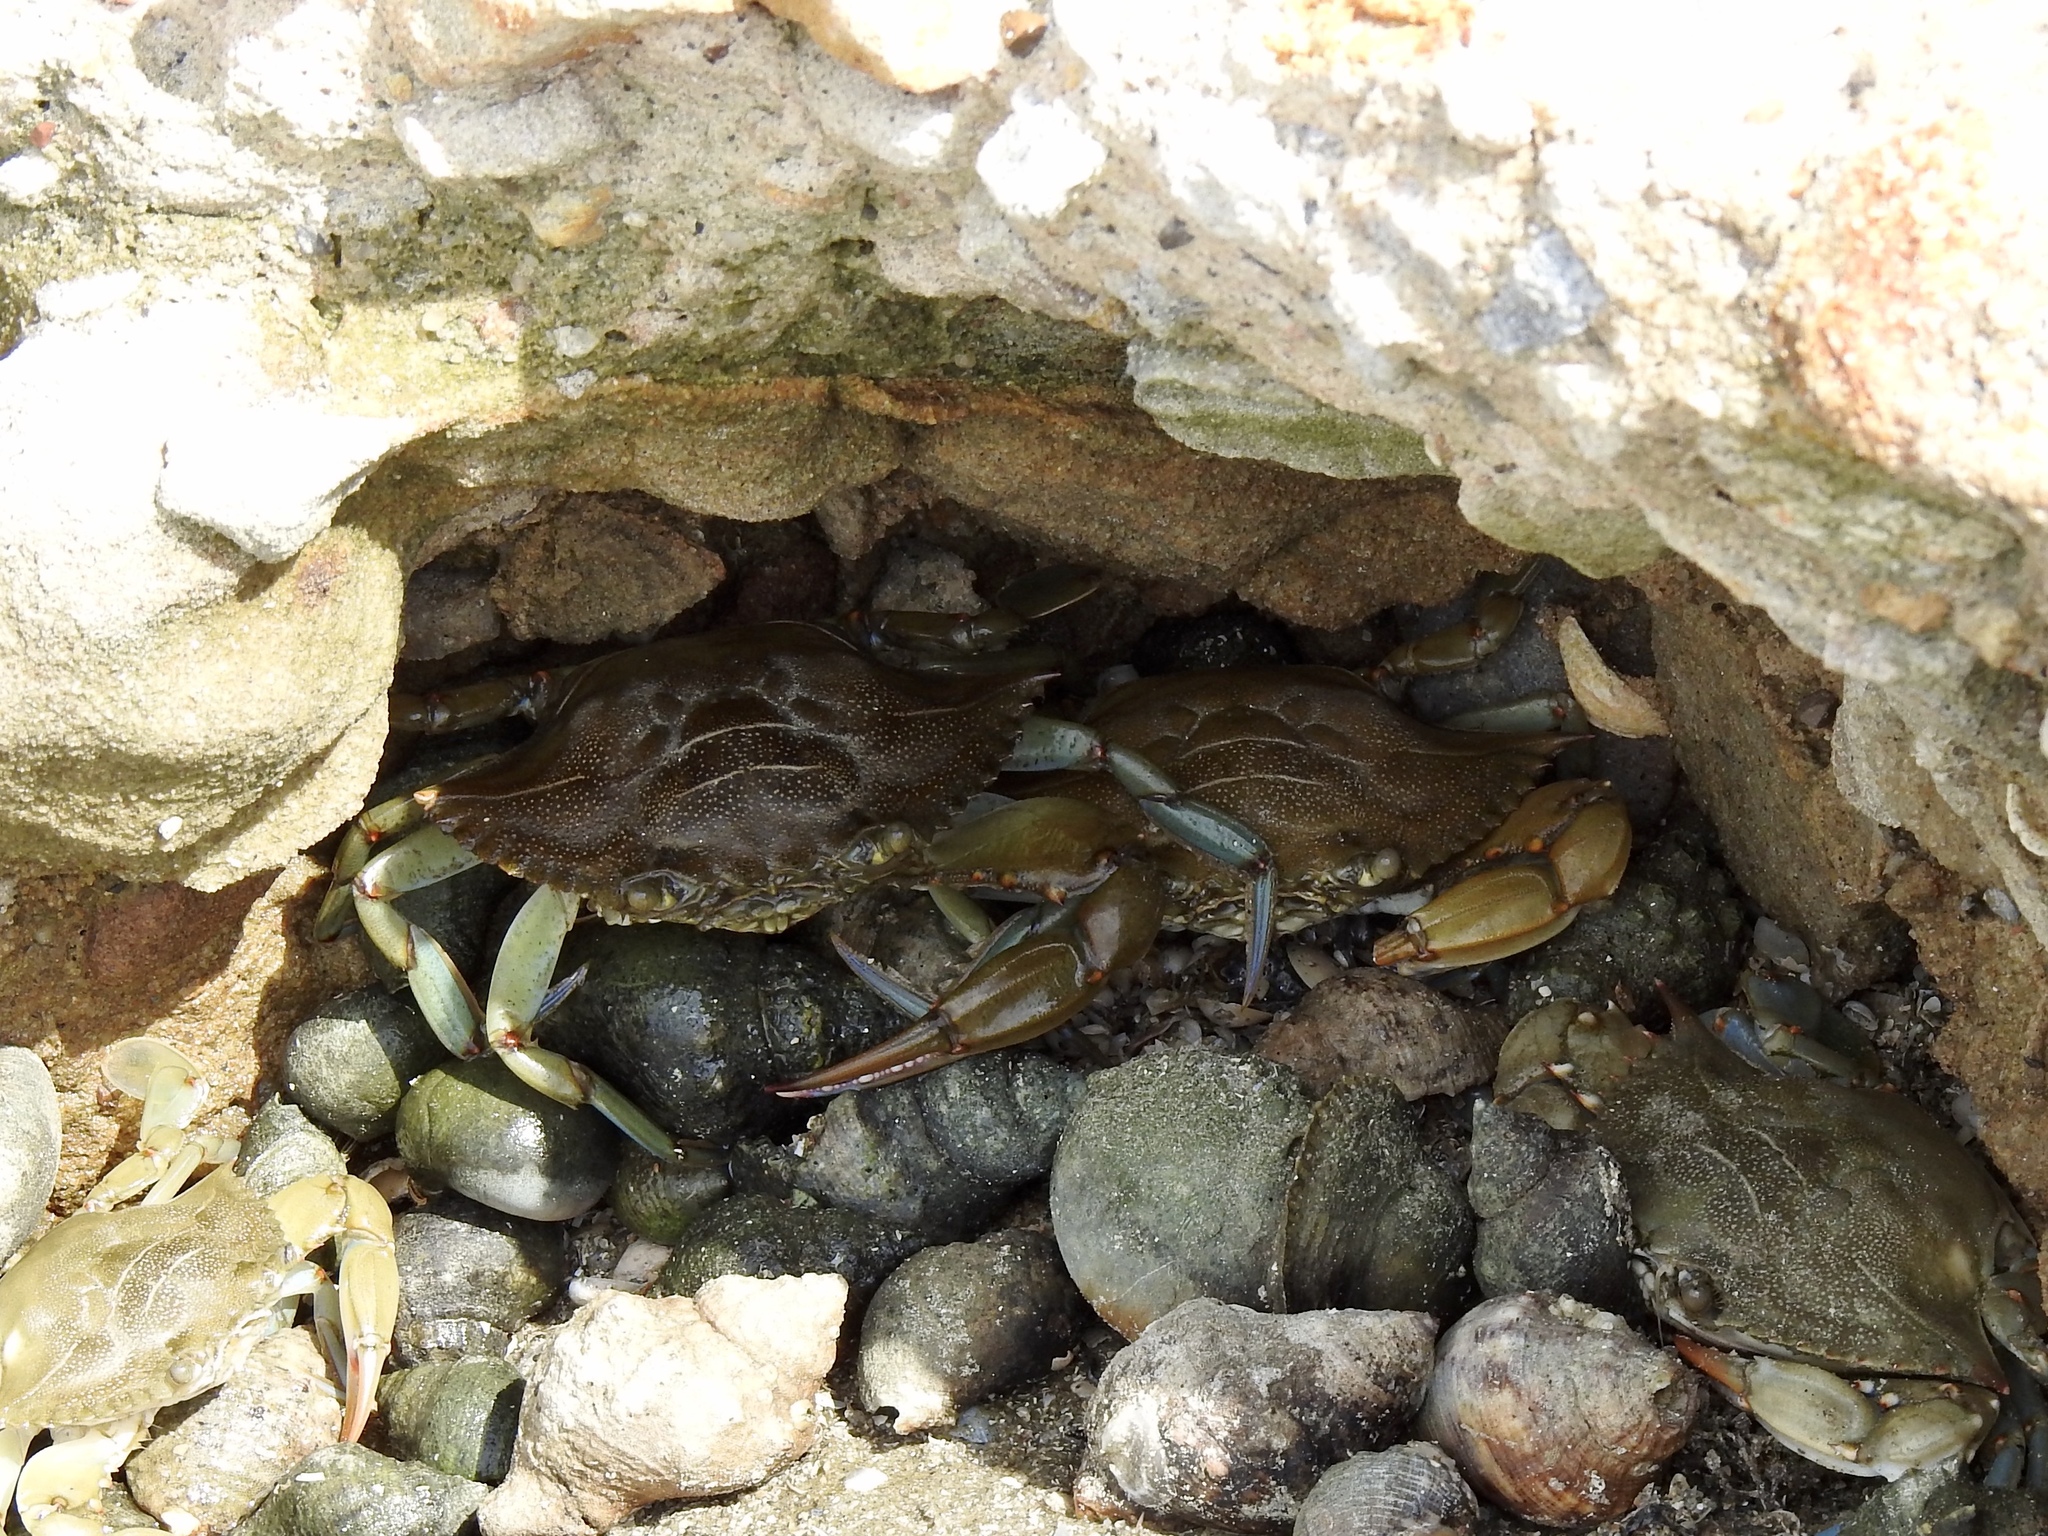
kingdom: Animalia
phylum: Arthropoda
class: Malacostraca
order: Decapoda
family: Portunidae
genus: Callinectes
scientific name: Callinectes sapidus
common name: Blue crab
